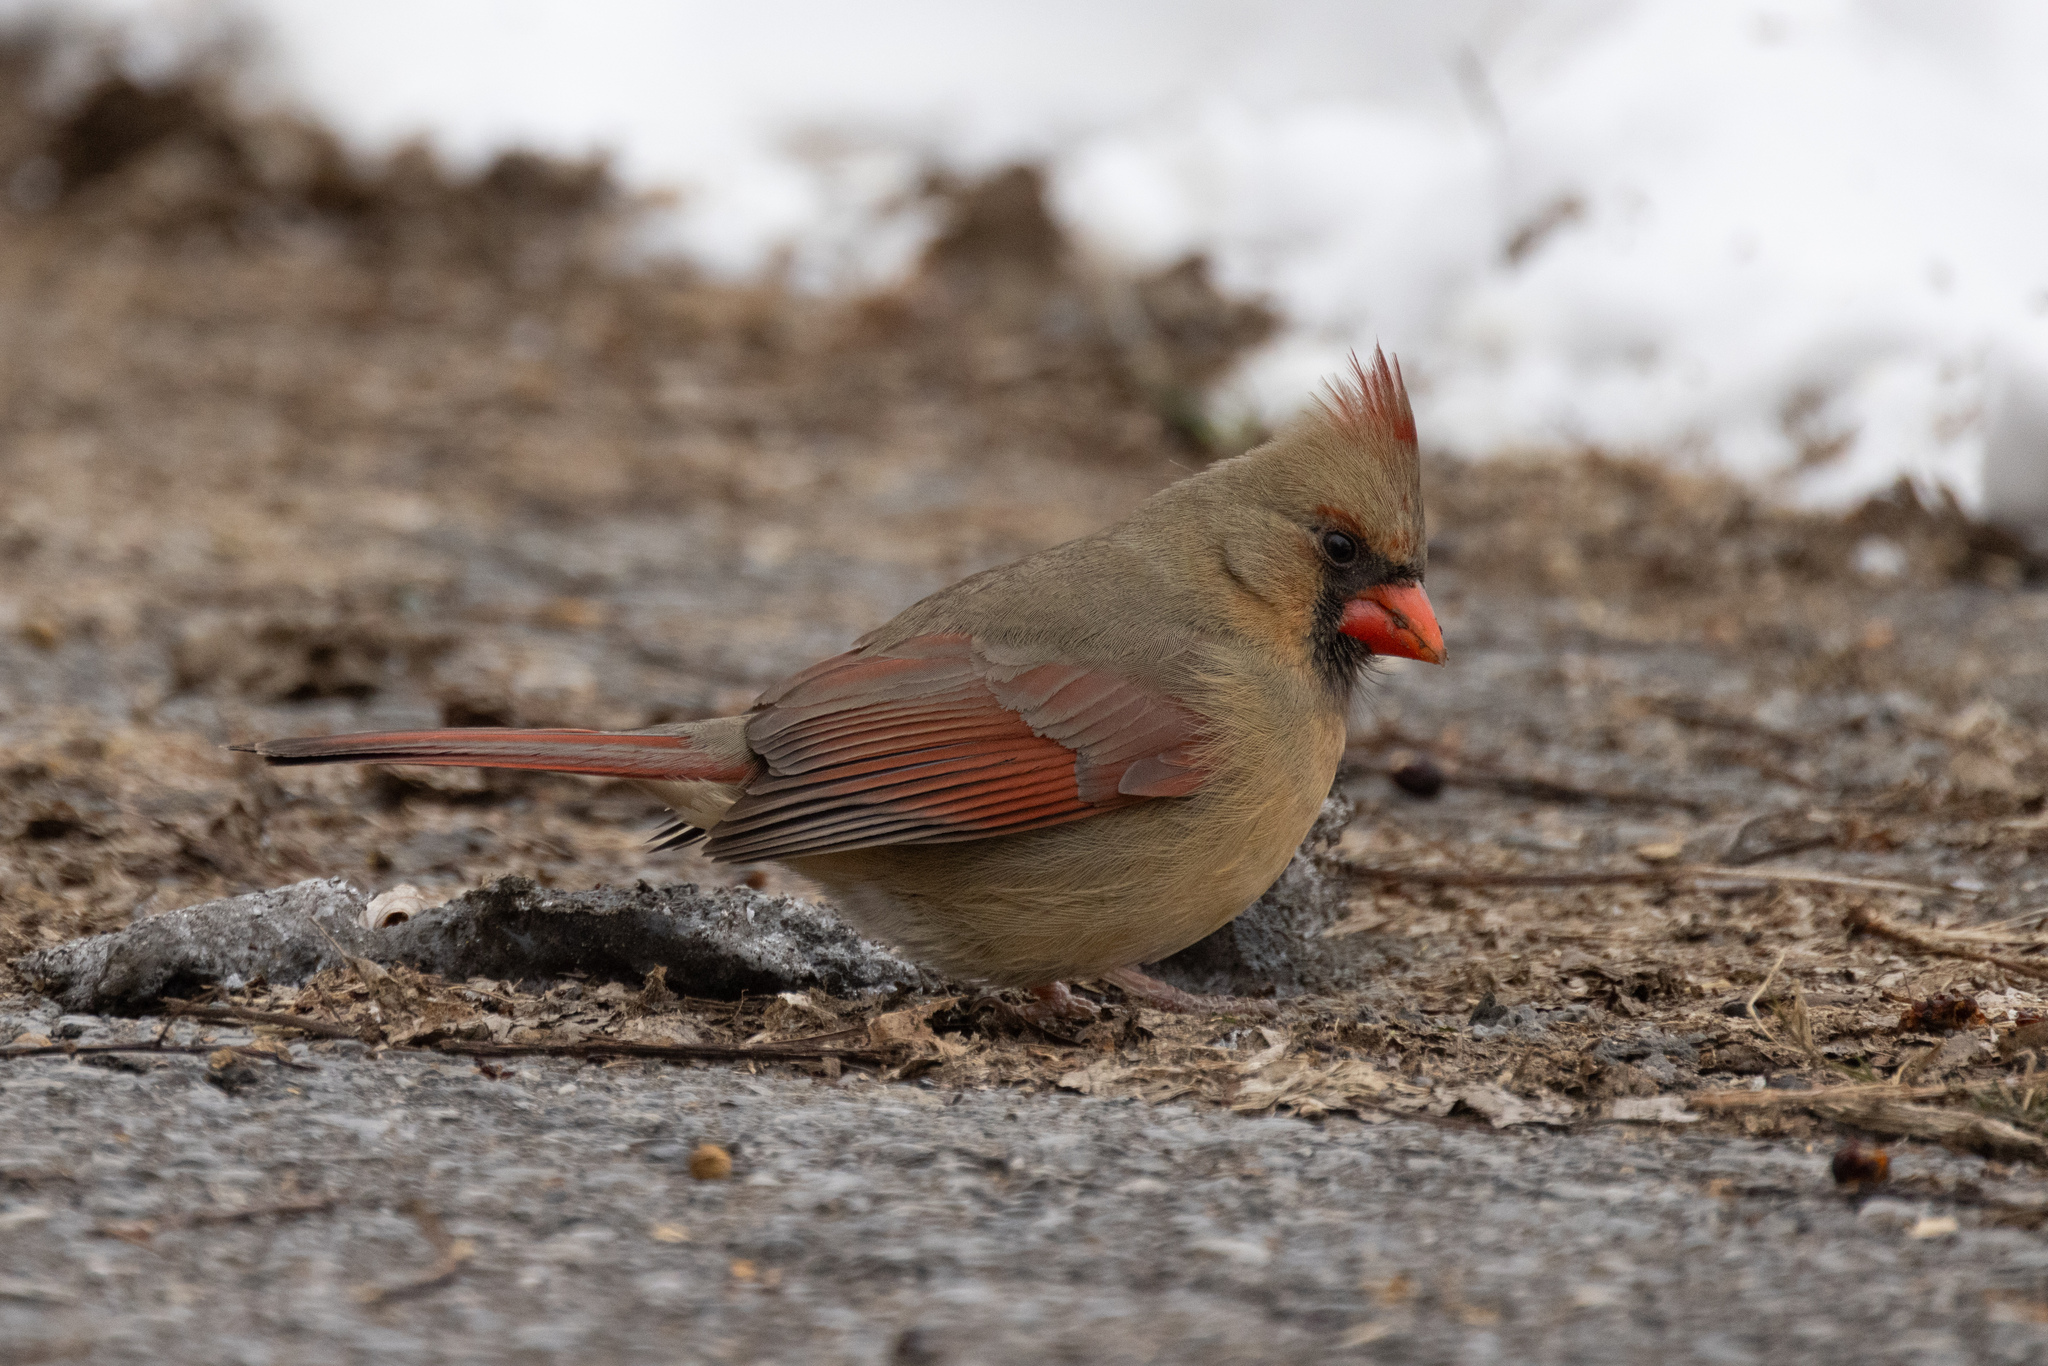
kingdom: Animalia
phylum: Chordata
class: Aves
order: Passeriformes
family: Cardinalidae
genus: Cardinalis
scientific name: Cardinalis cardinalis
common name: Northern cardinal
